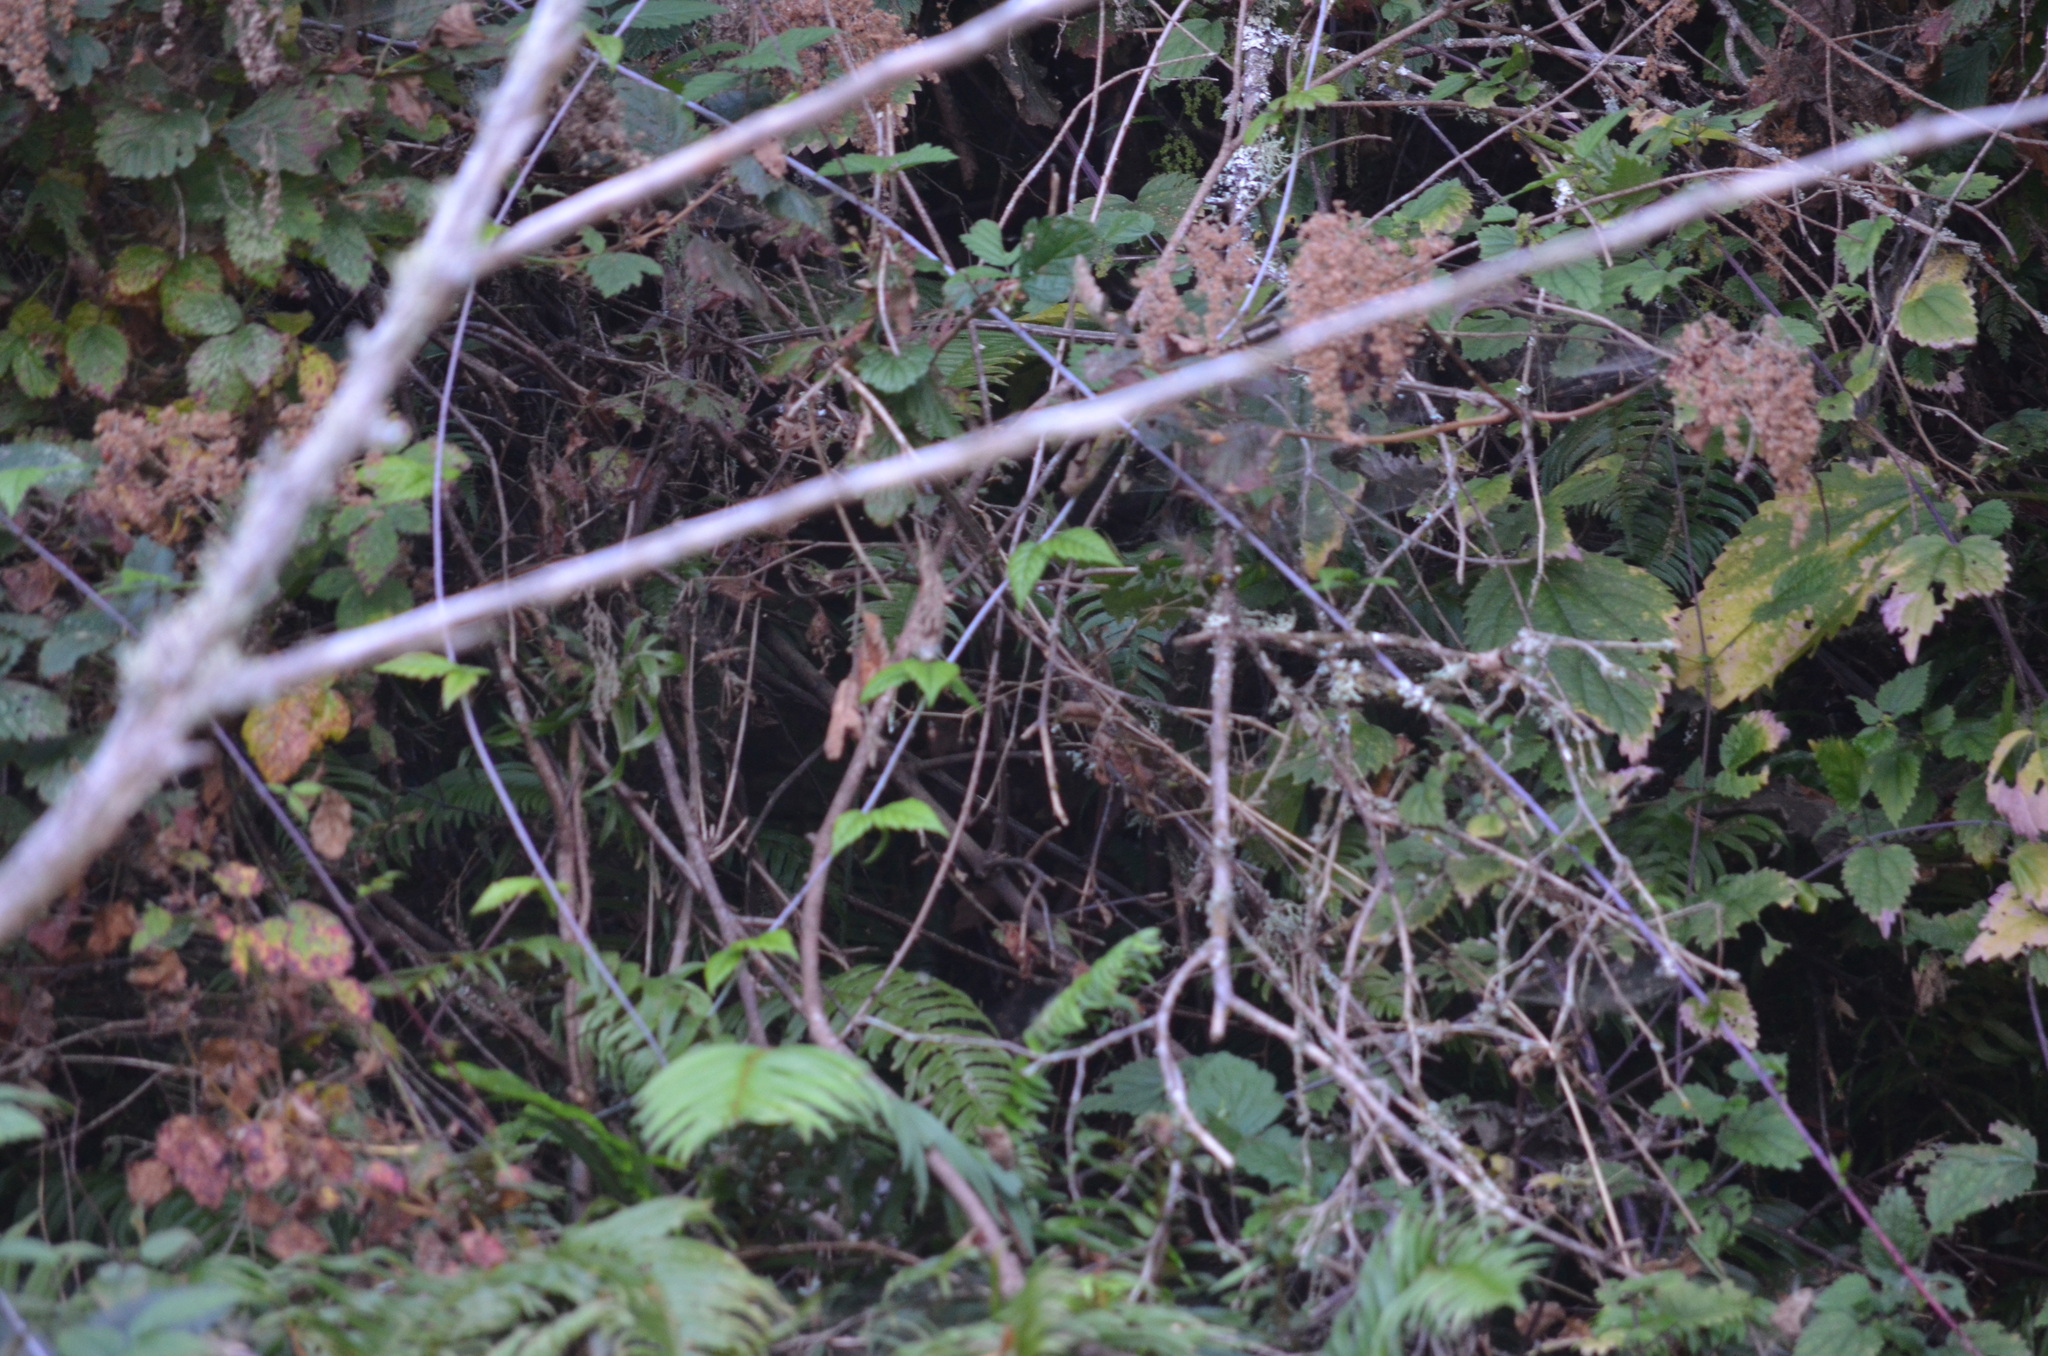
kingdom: Plantae
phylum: Tracheophyta
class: Magnoliopsida
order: Rosales
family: Rosaceae
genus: Holodiscus
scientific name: Holodiscus discolor
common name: Oceanspray
